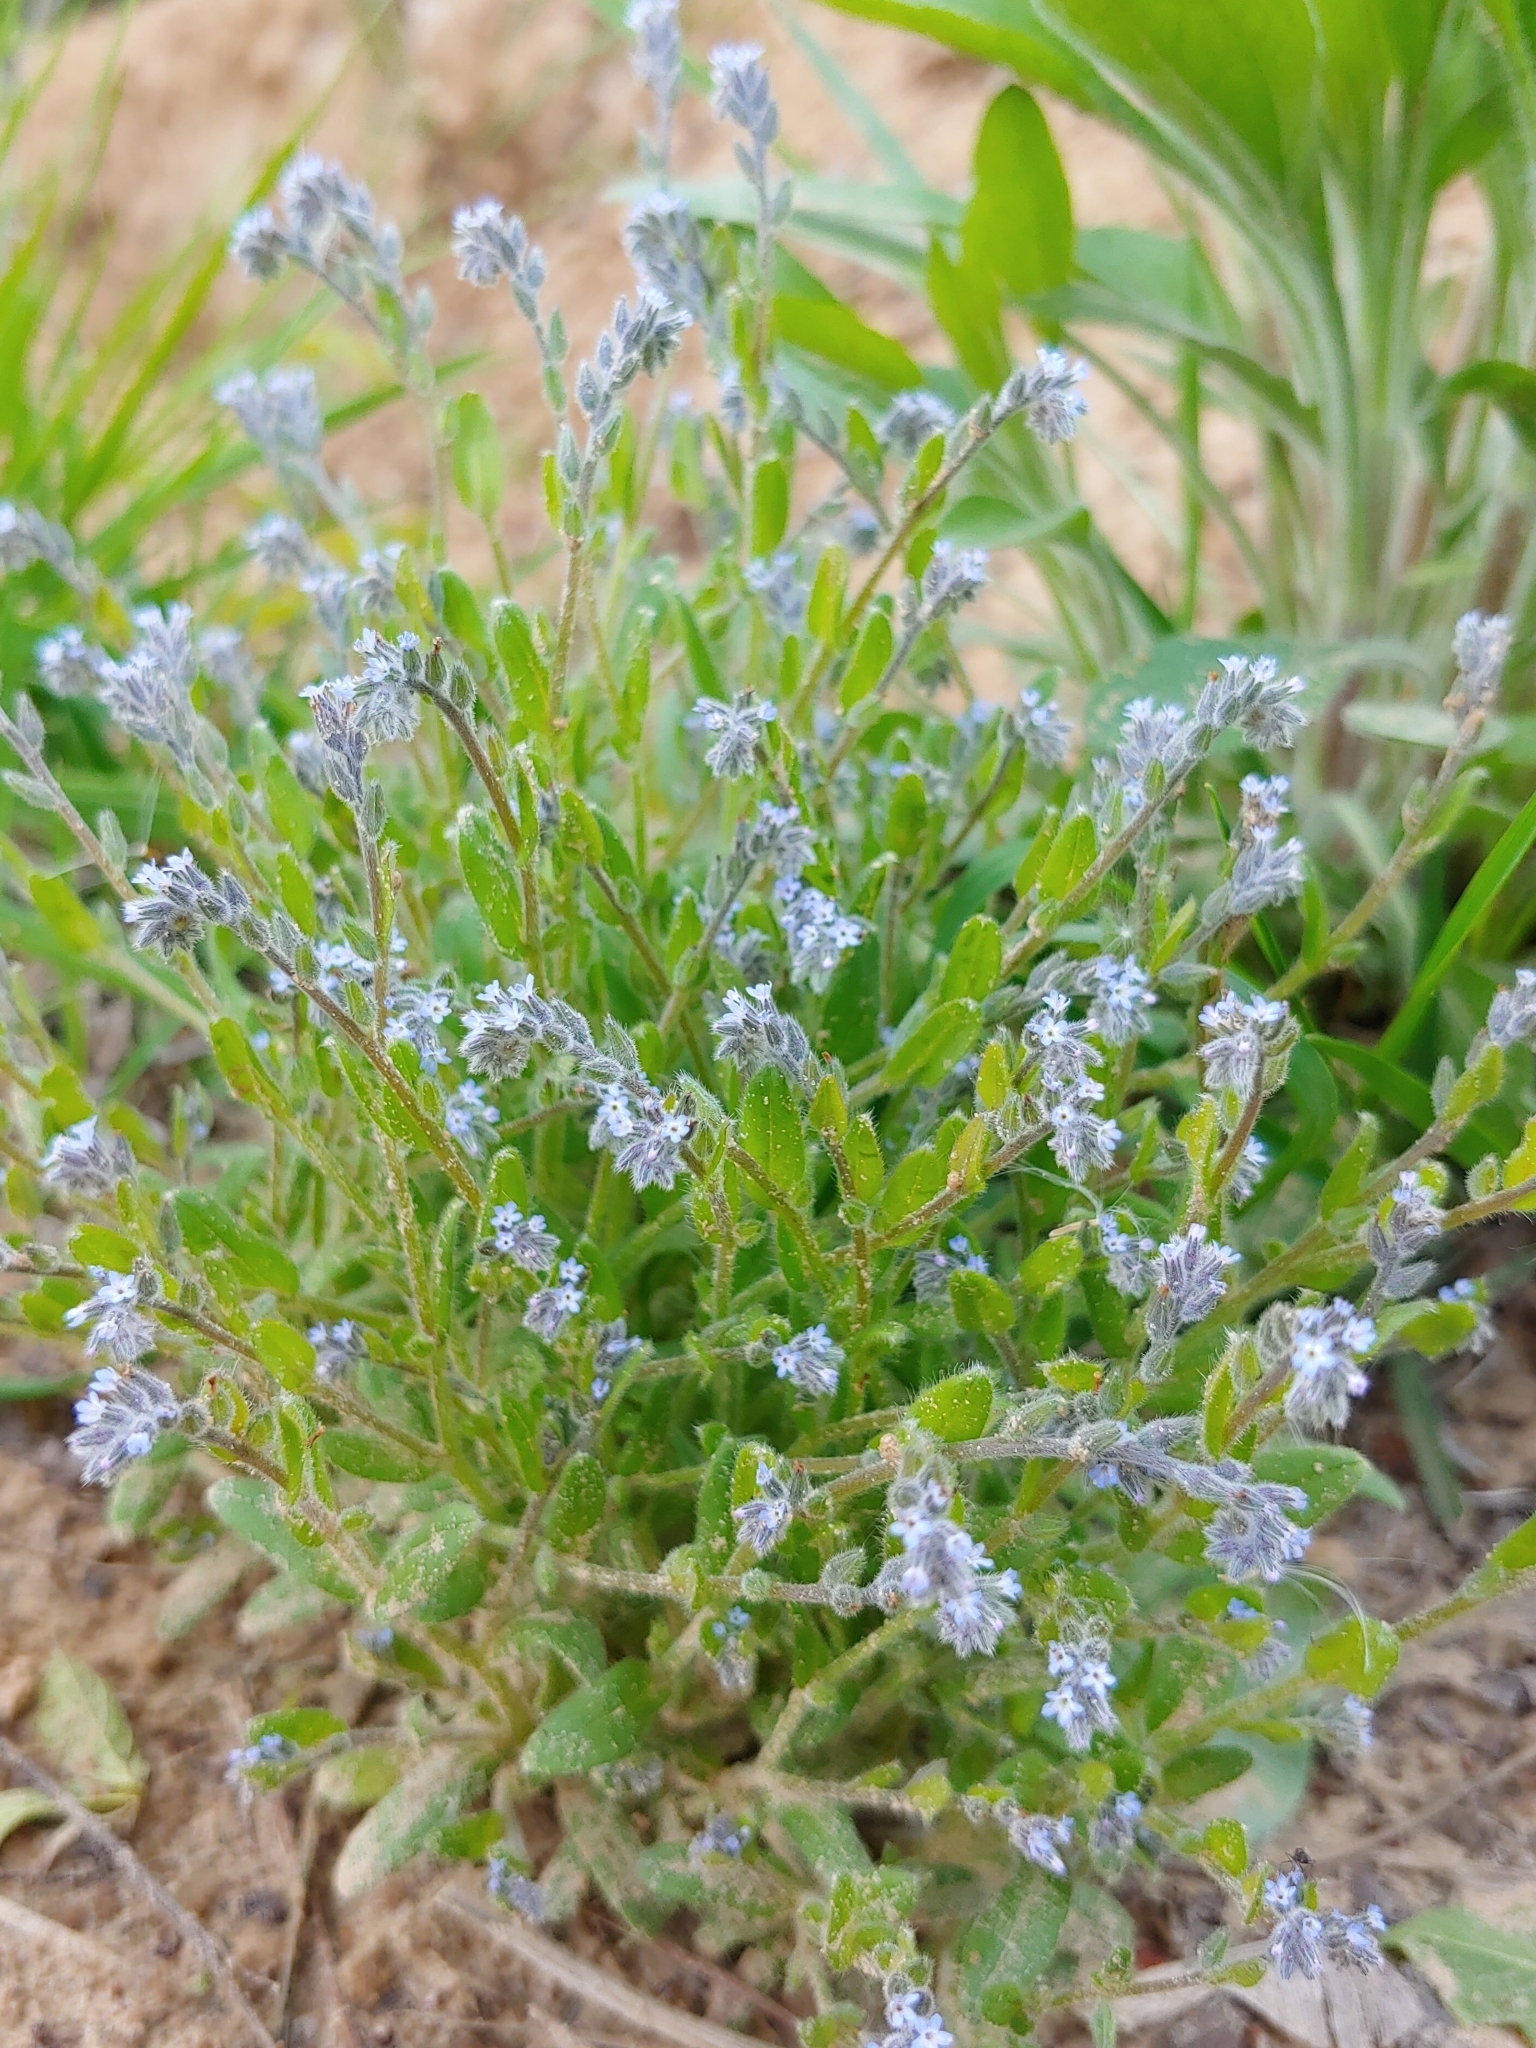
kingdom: Plantae
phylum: Tracheophyta
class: Magnoliopsida
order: Boraginales
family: Boraginaceae
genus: Myosotis
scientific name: Myosotis stricta
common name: Strict forget-me-not
